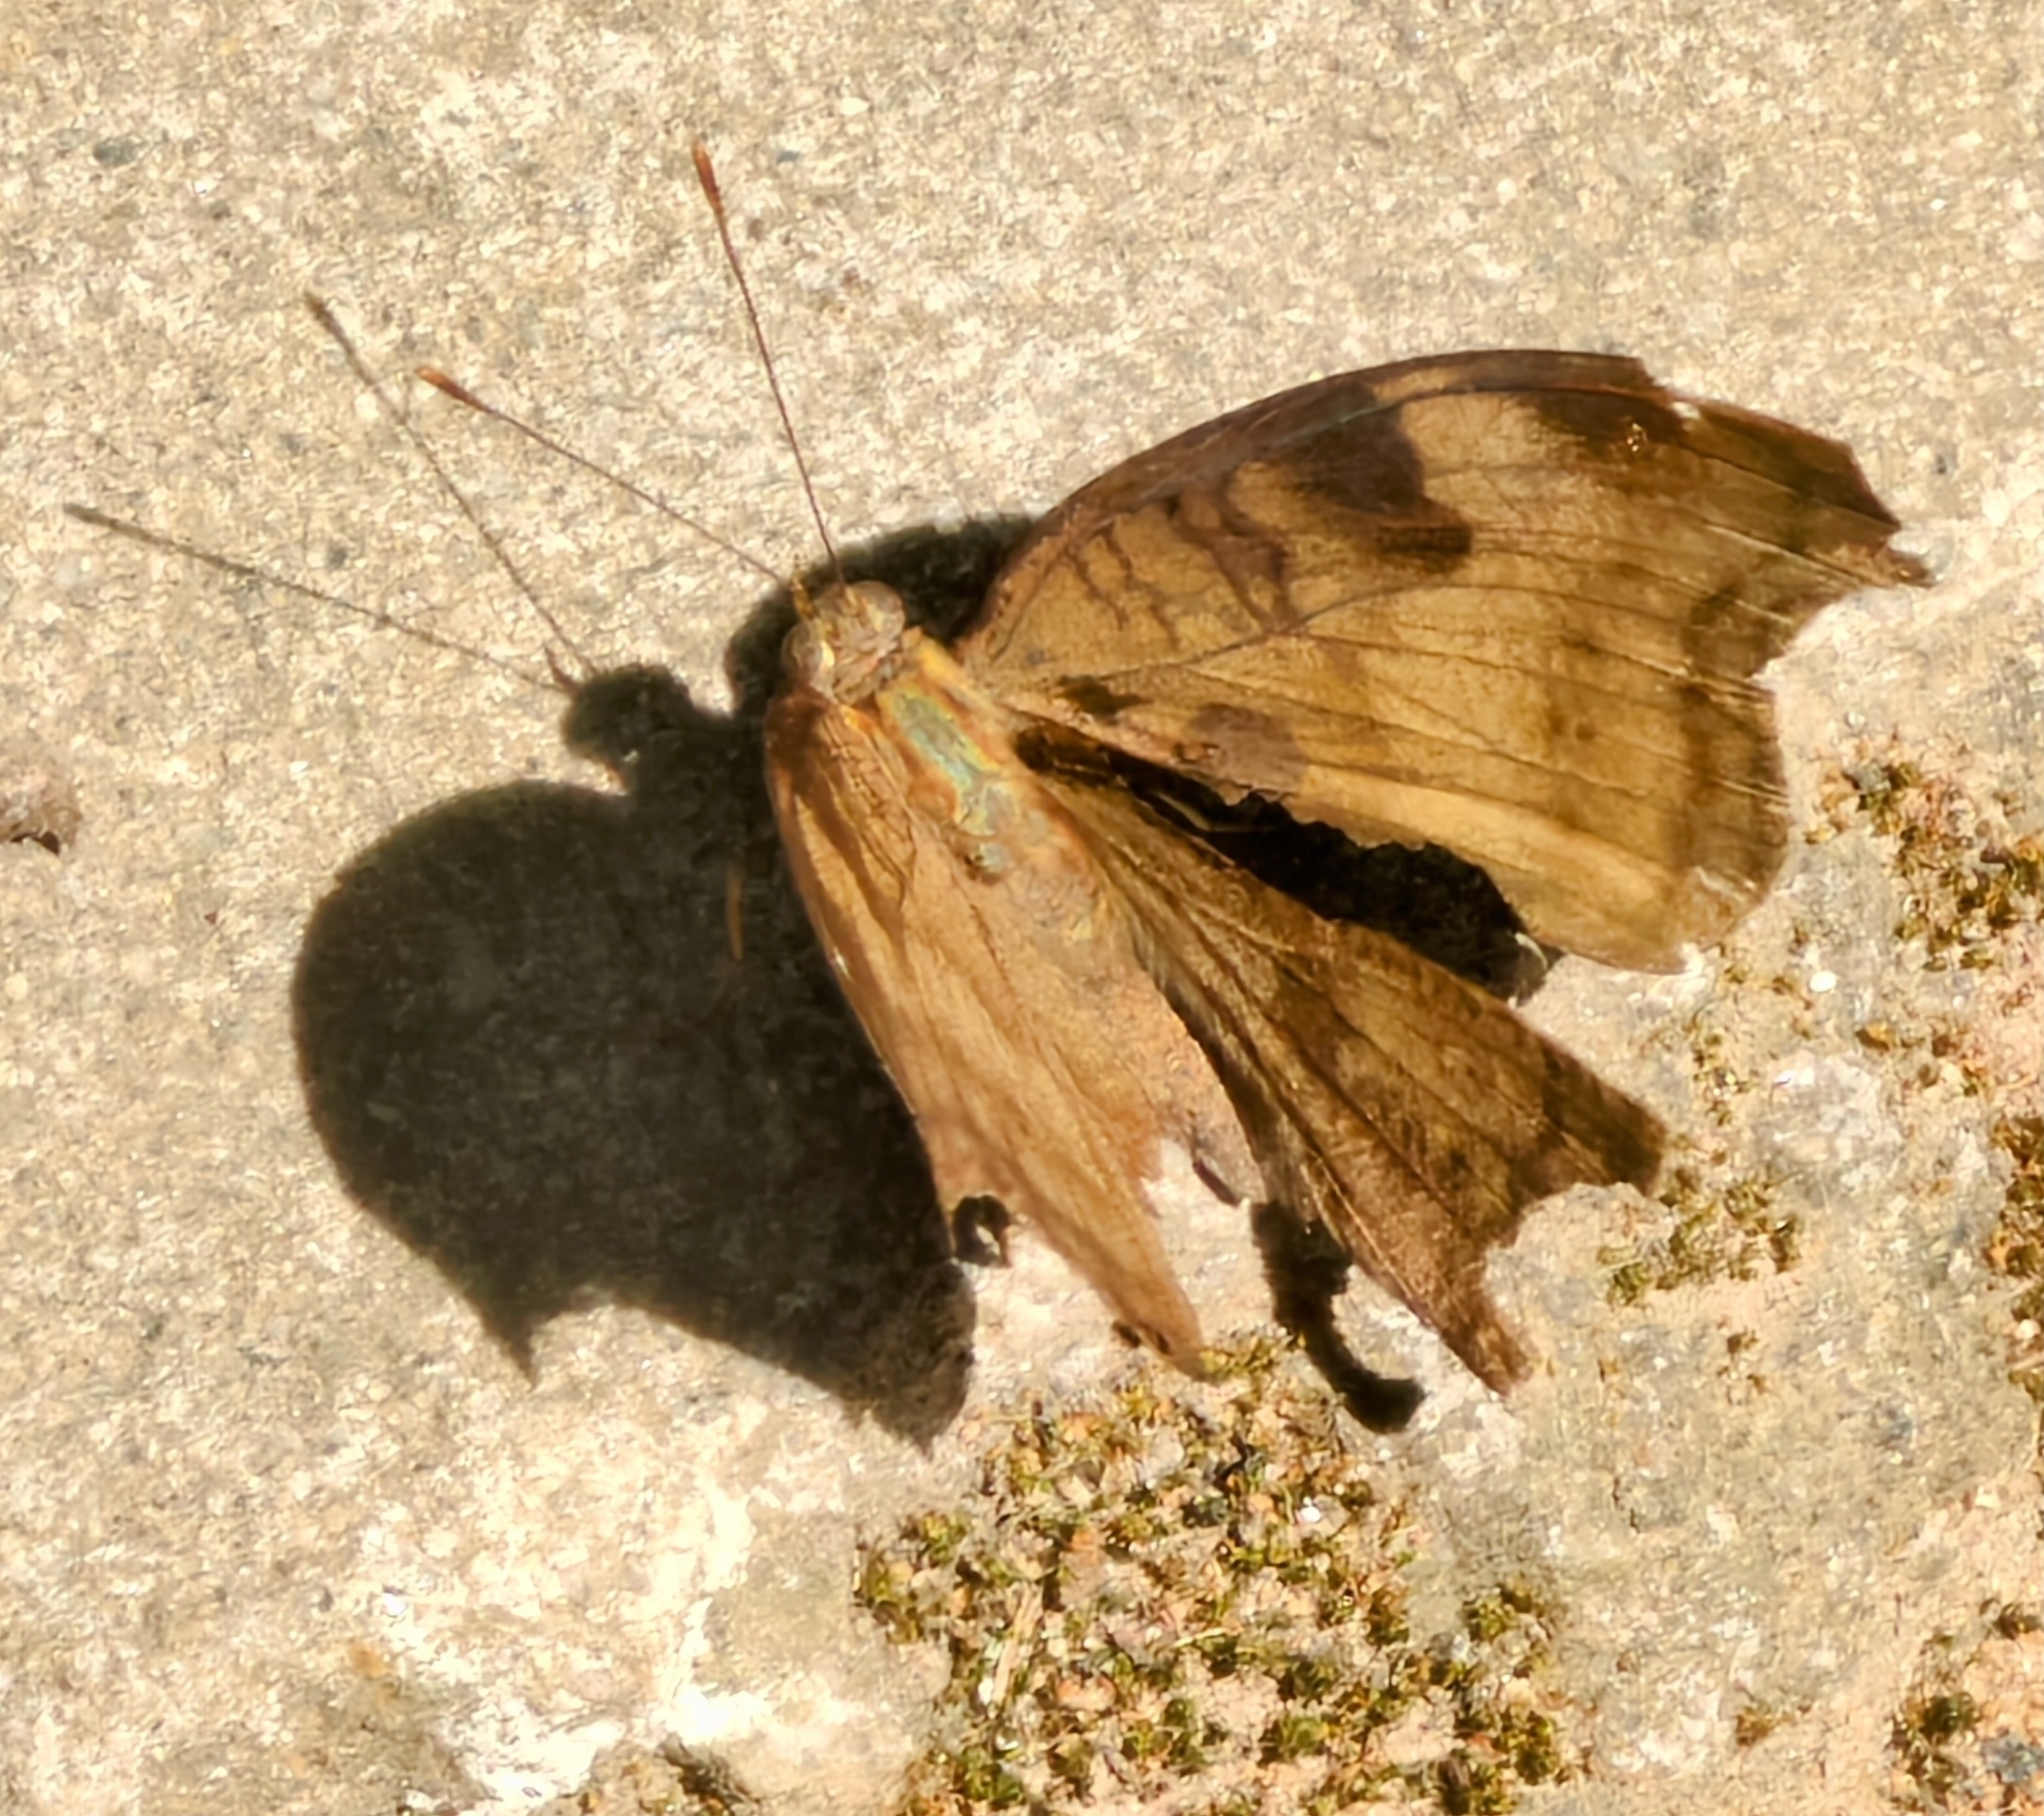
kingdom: Animalia
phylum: Arthropoda
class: Insecta
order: Lepidoptera
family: Nymphalidae
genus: Junonia
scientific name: Junonia iphita
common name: Chocolate pansy
